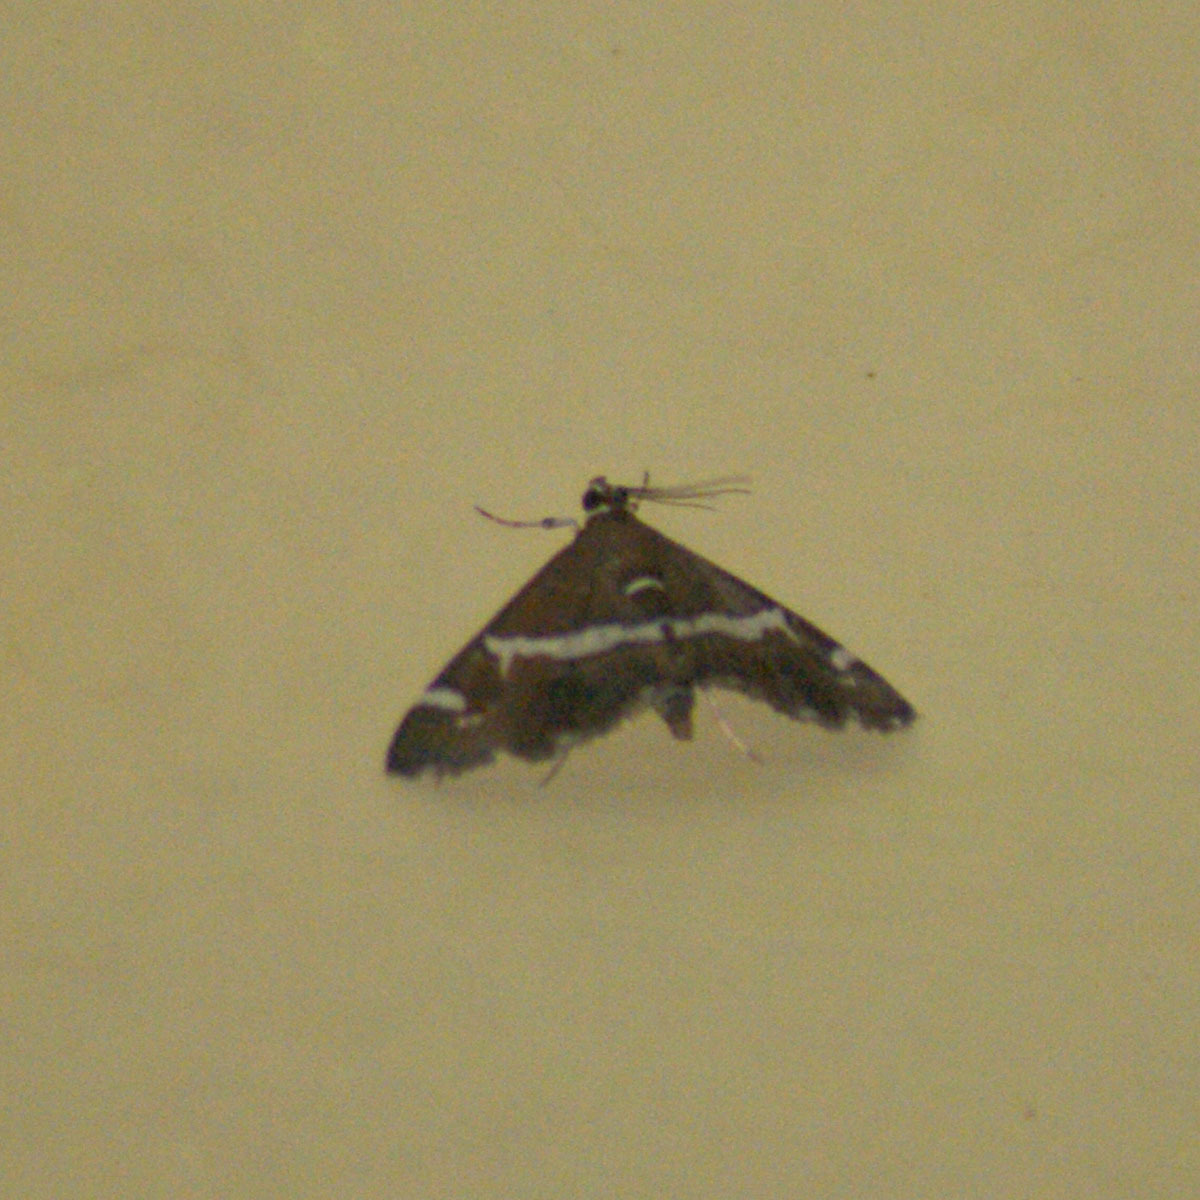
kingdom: Animalia
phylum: Arthropoda
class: Insecta
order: Lepidoptera
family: Crambidae
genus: Spoladea
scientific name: Spoladea recurvalis
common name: Beet webworm moth
